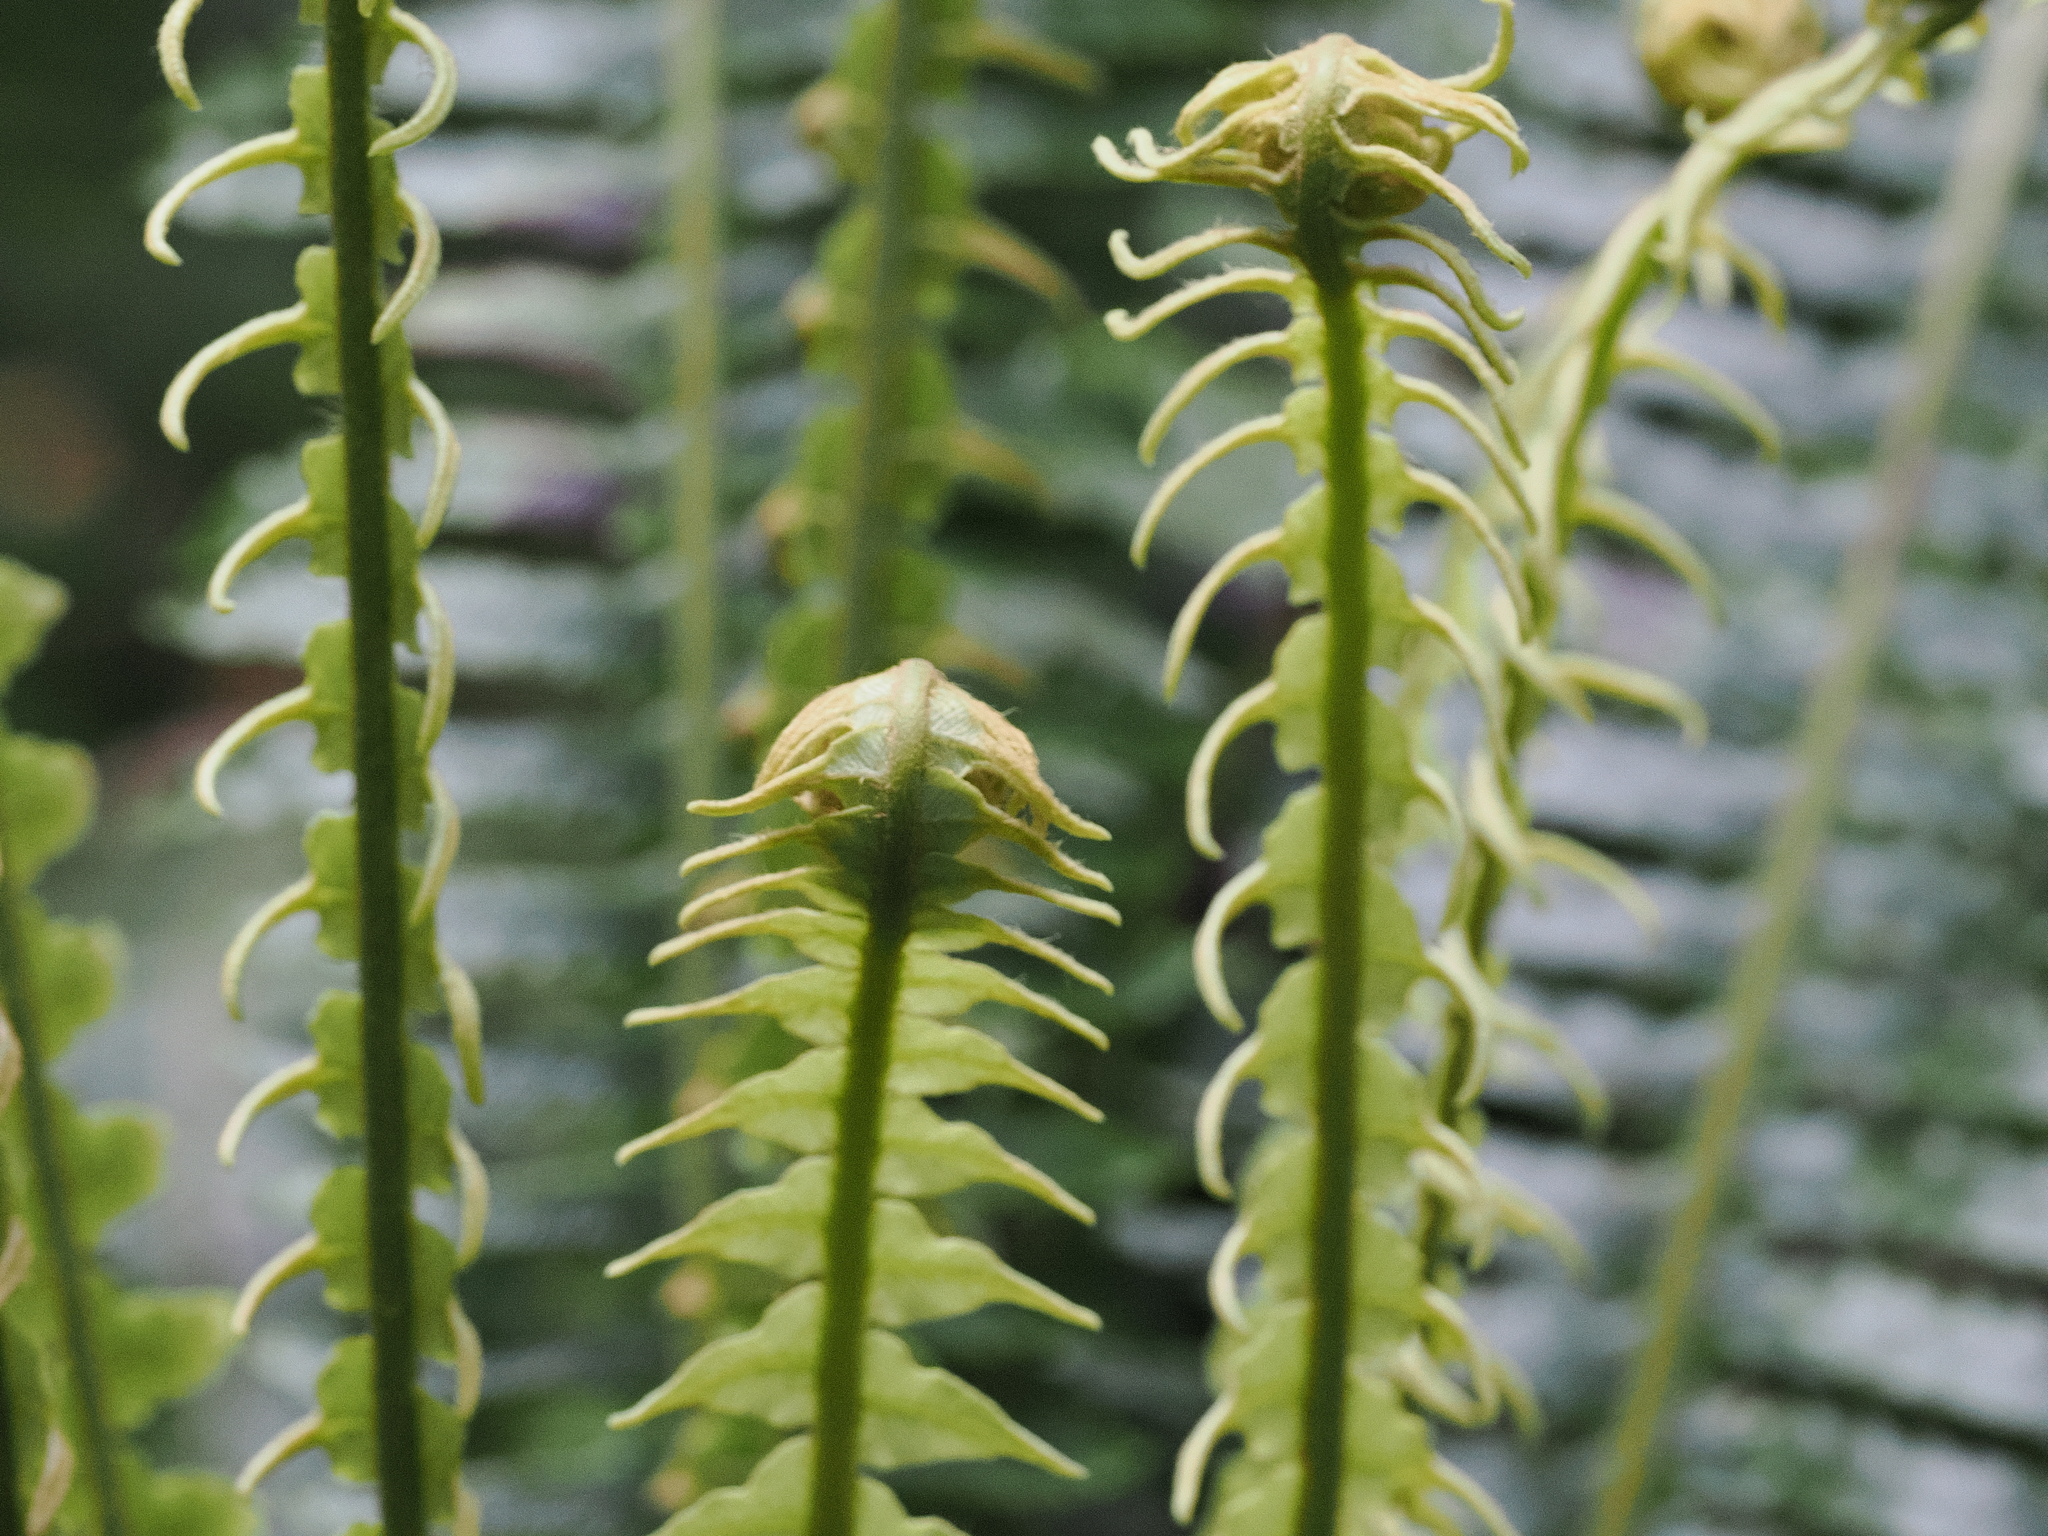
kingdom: Plantae
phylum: Tracheophyta
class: Polypodiopsida
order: Polypodiales
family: Blechnaceae
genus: Lomaria
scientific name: Lomaria discolor
